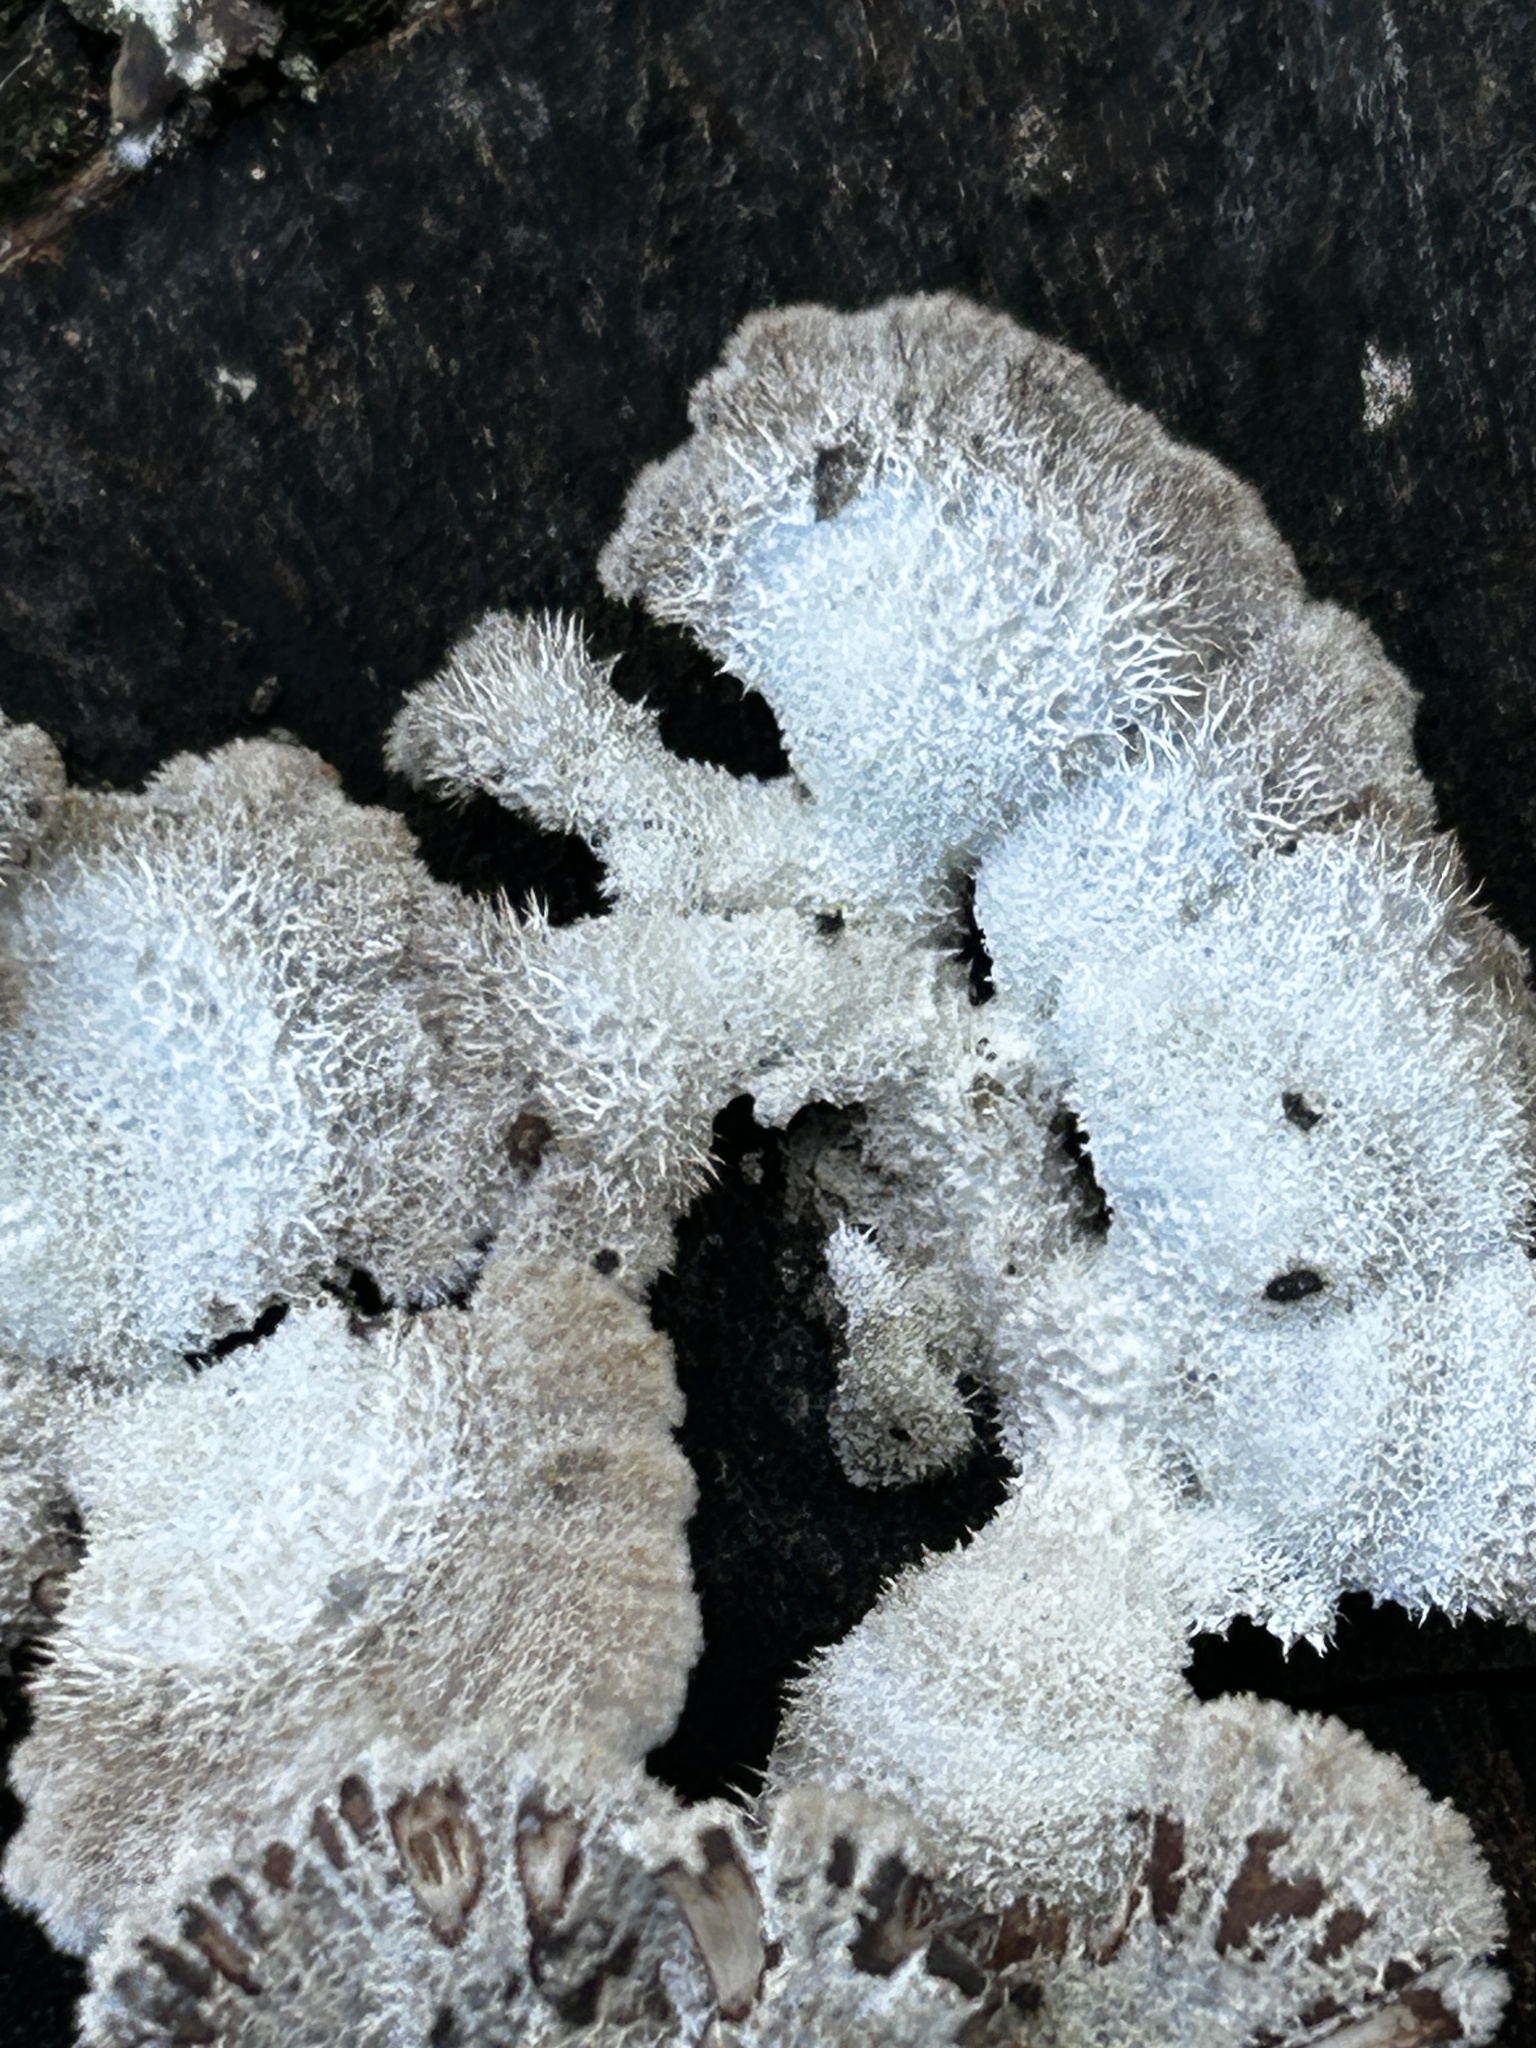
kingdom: Fungi
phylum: Basidiomycota
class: Agaricomycetes
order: Agaricales
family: Schizophyllaceae
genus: Schizophyllum
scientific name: Schizophyllum commune
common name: Common porecrust
